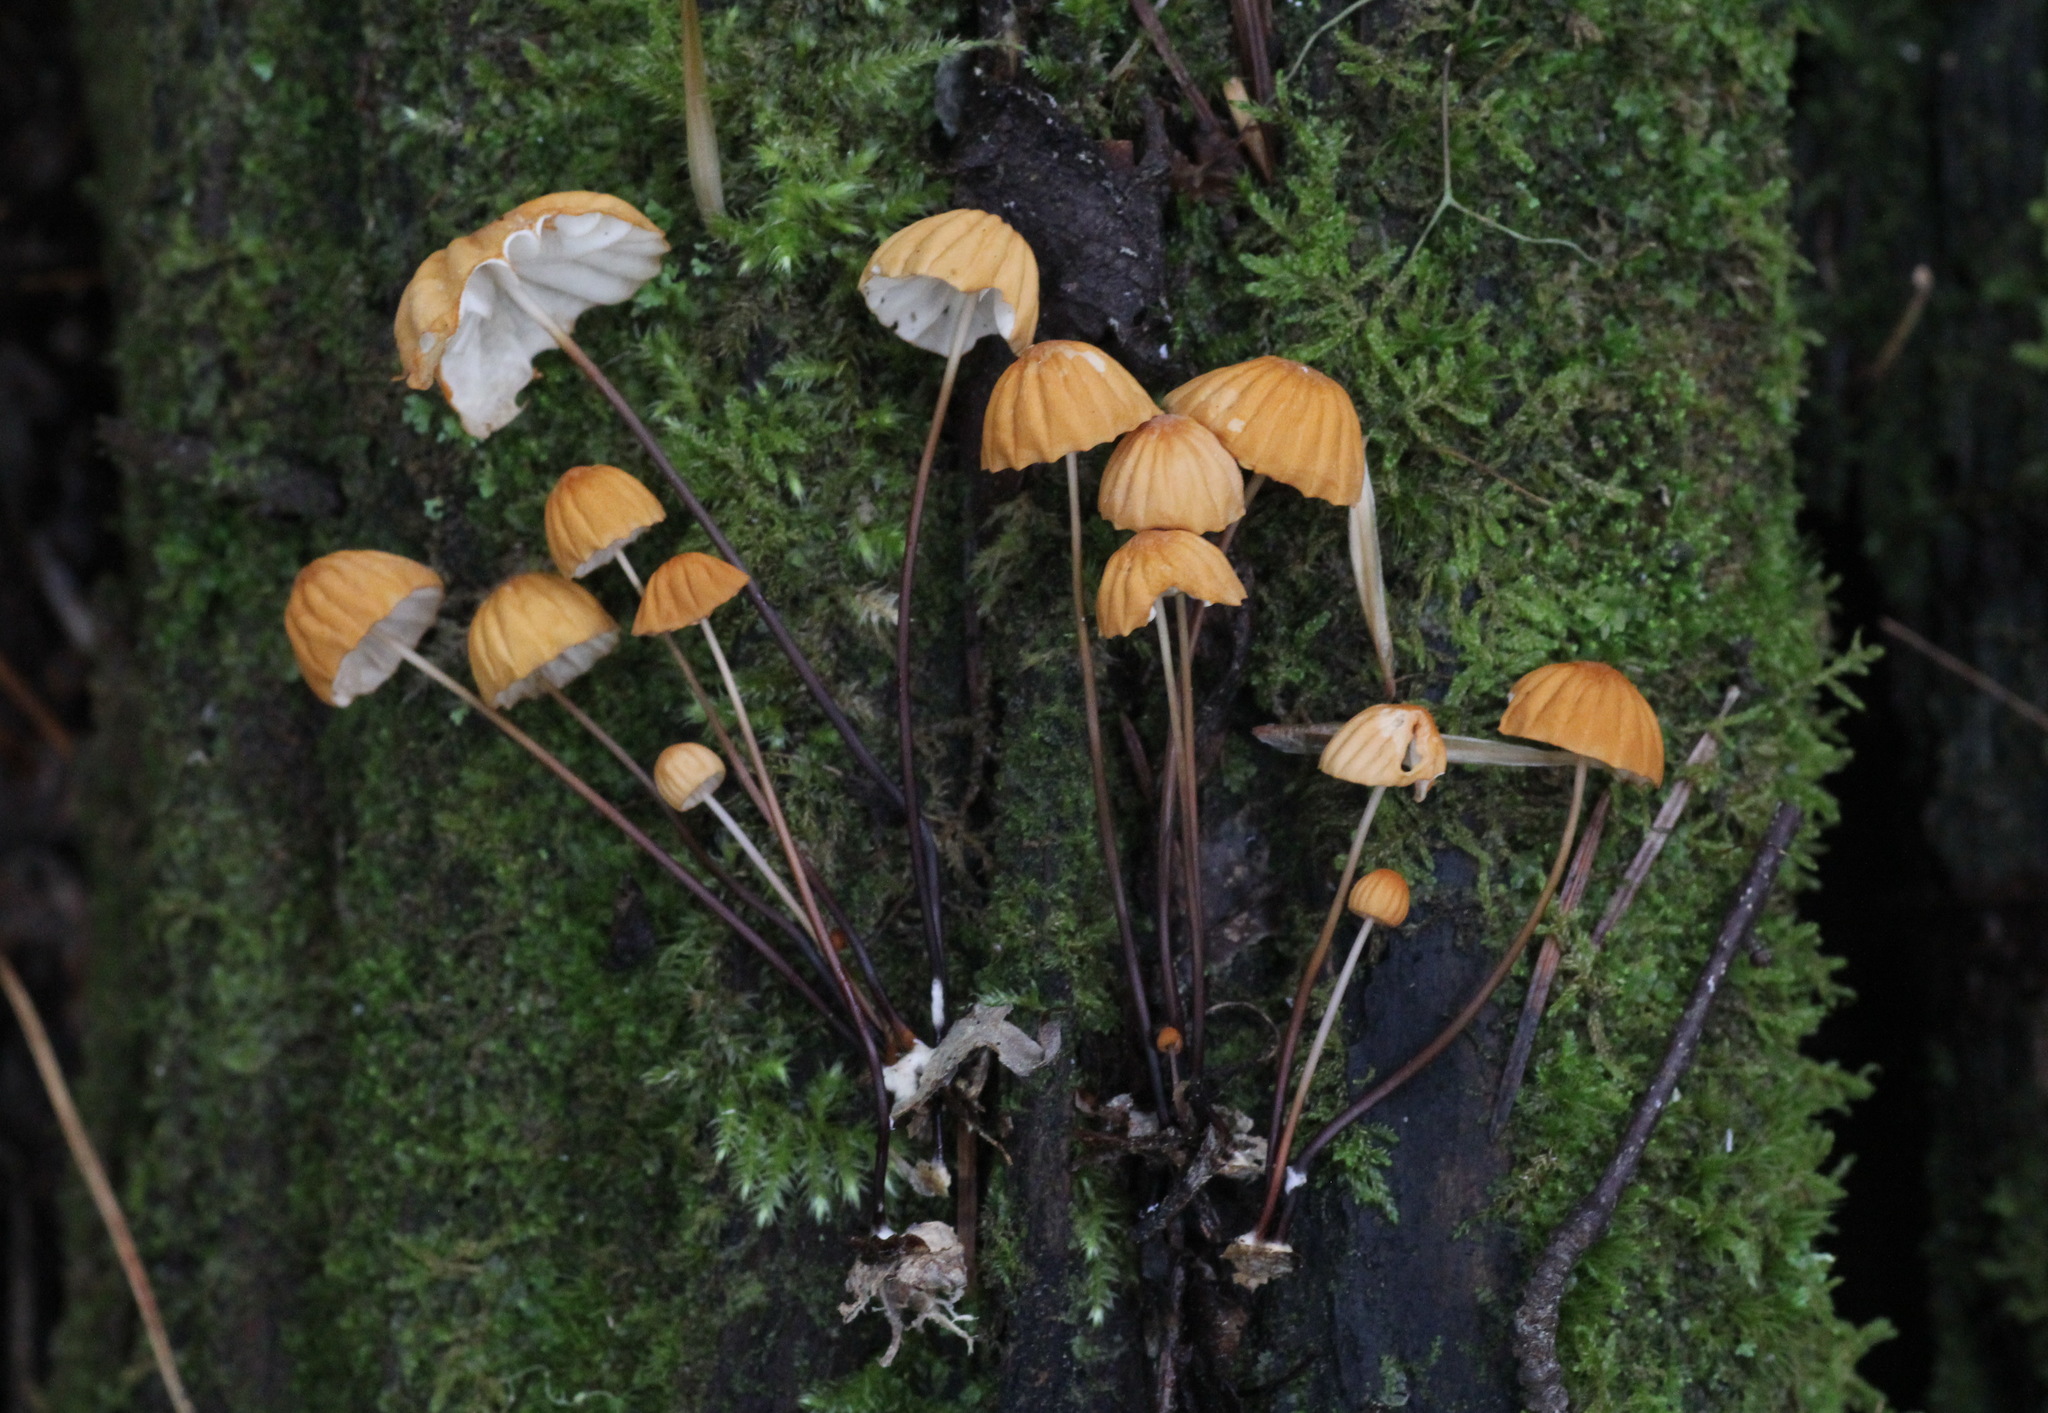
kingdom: Fungi
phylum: Basidiomycota
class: Agaricomycetes
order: Agaricales
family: Marasmiaceae
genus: Marasmius
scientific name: Marasmius siccus
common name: Orange pinwheel
